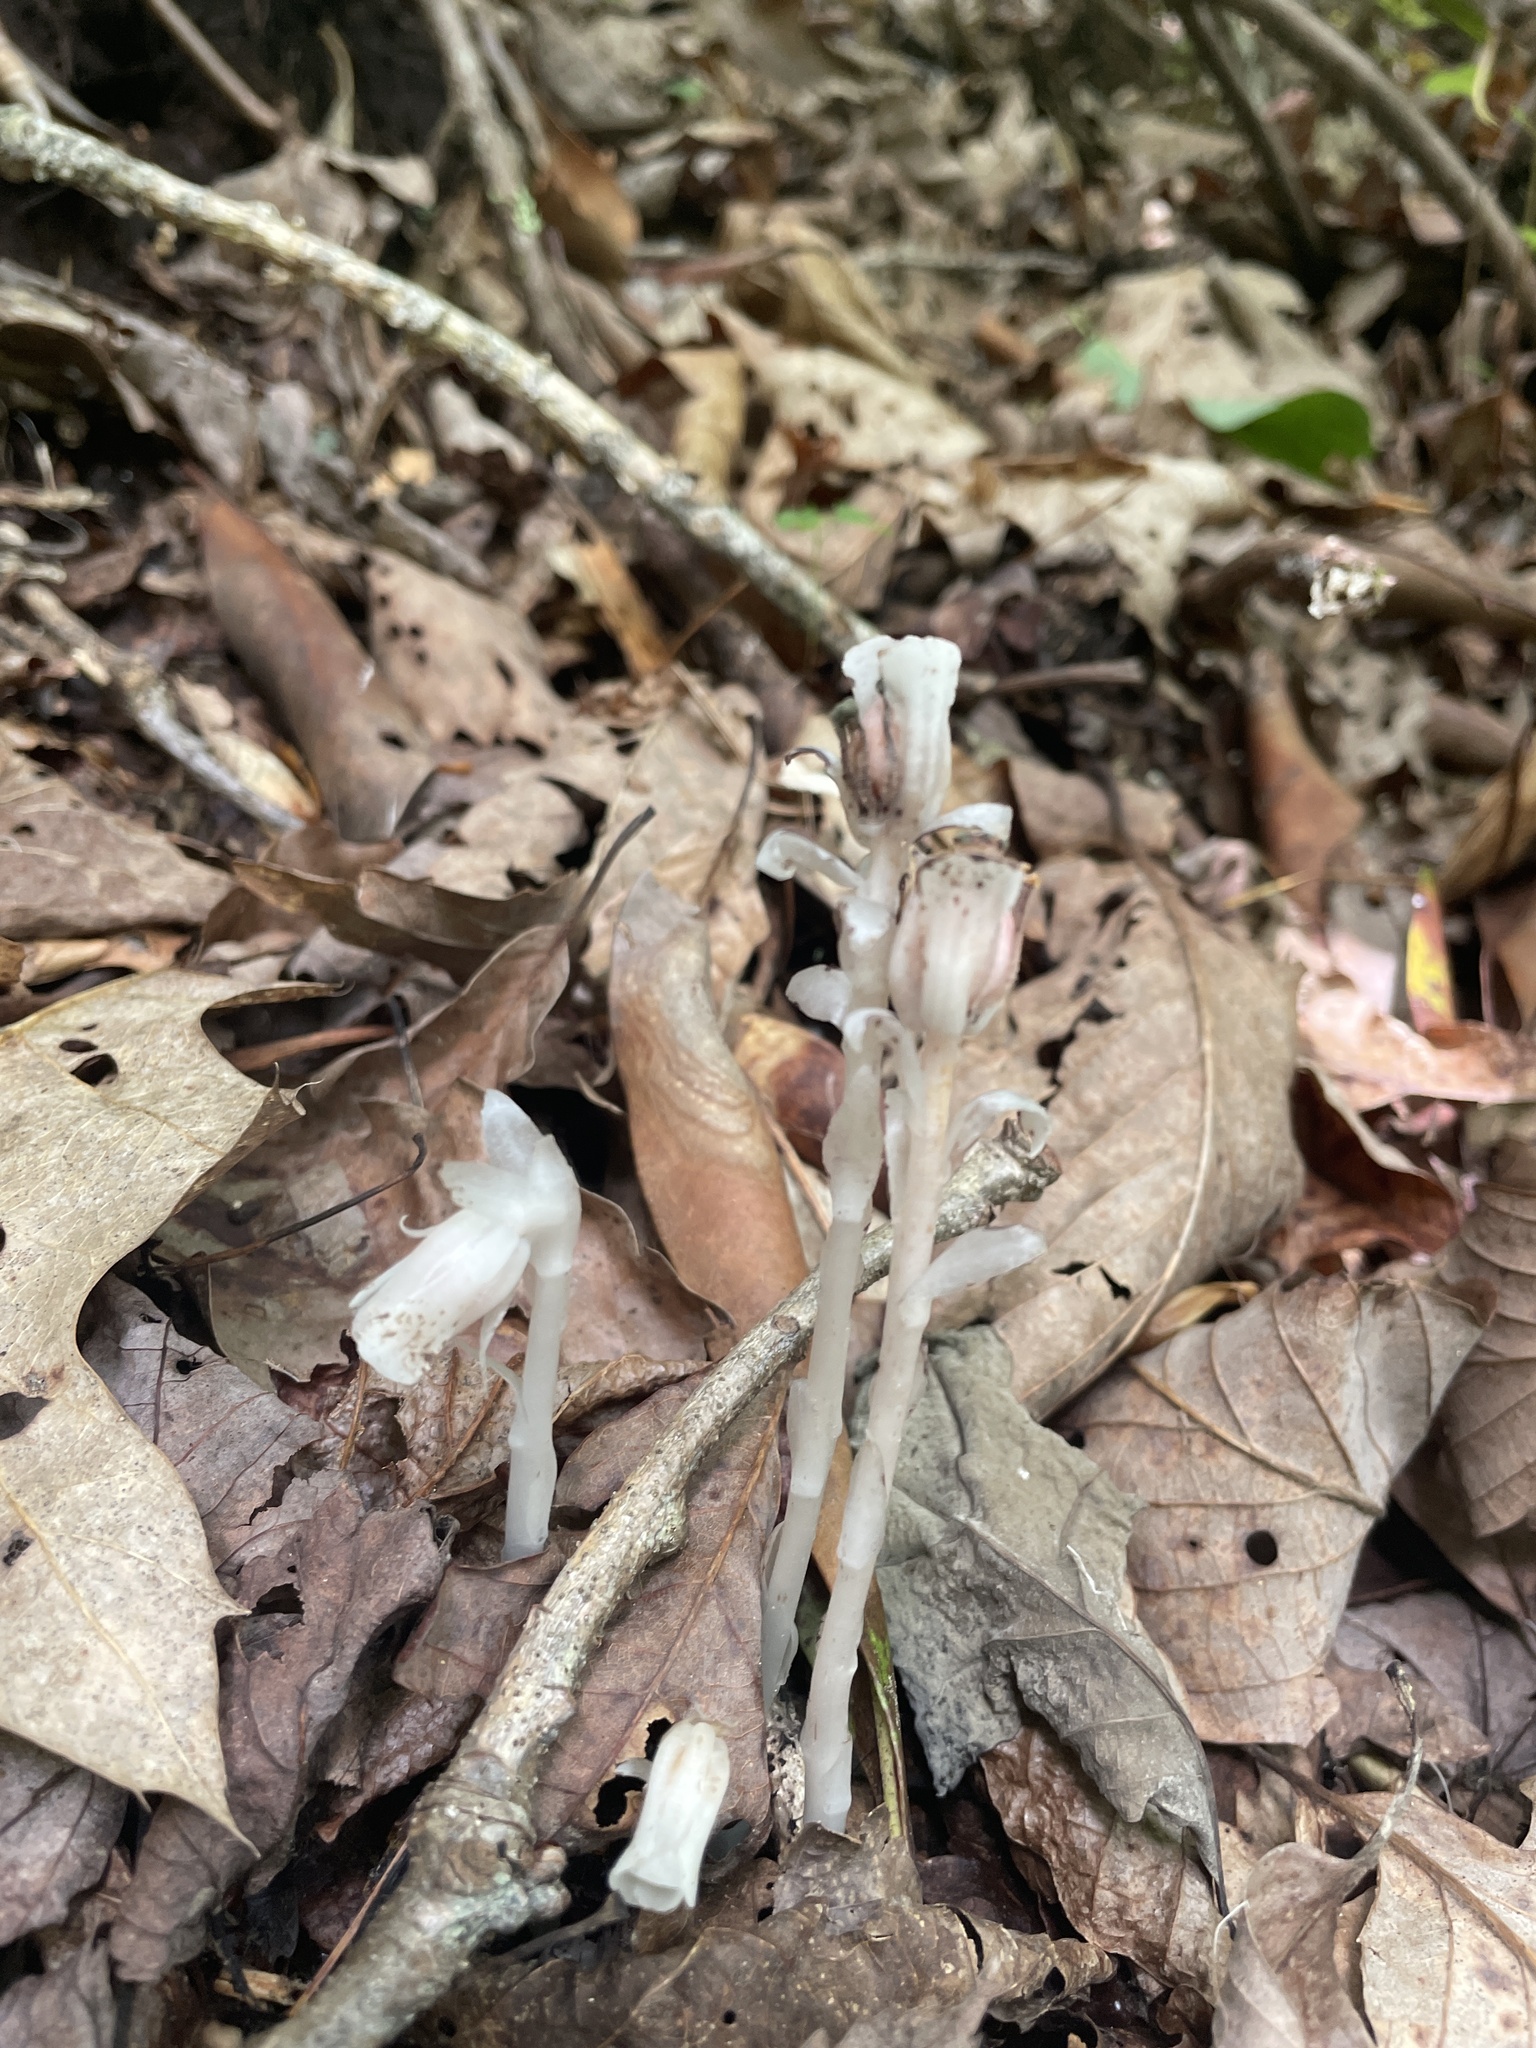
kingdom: Plantae
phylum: Tracheophyta
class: Magnoliopsida
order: Ericales
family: Ericaceae
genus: Monotropa
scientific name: Monotropa uniflora
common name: Convulsion root
